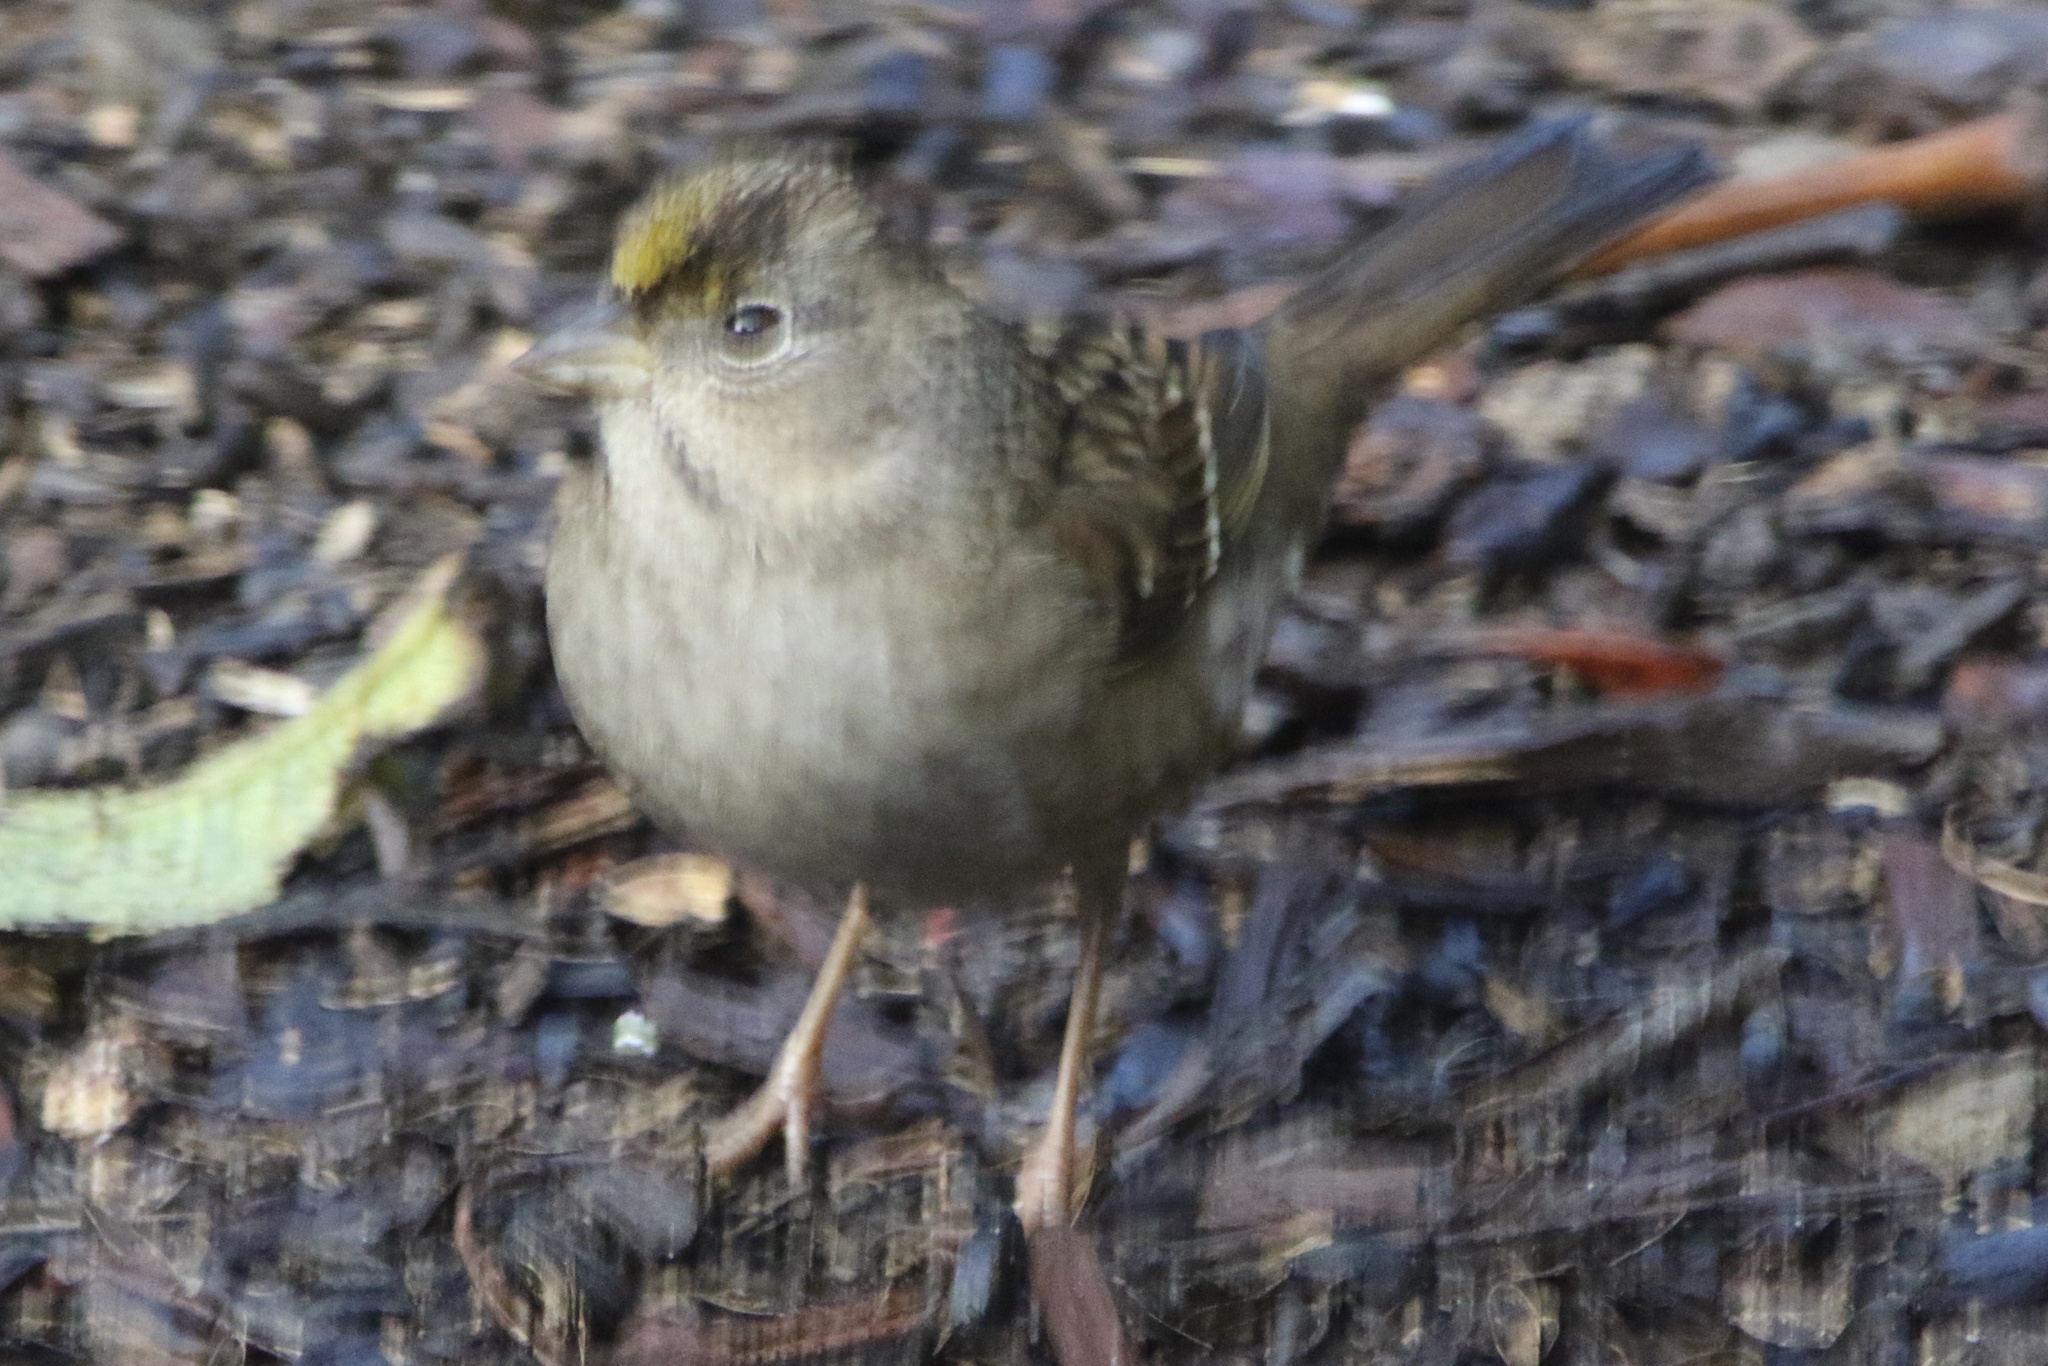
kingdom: Animalia
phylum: Chordata
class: Aves
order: Passeriformes
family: Passerellidae
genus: Zonotrichia
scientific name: Zonotrichia atricapilla
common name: Golden-crowned sparrow
